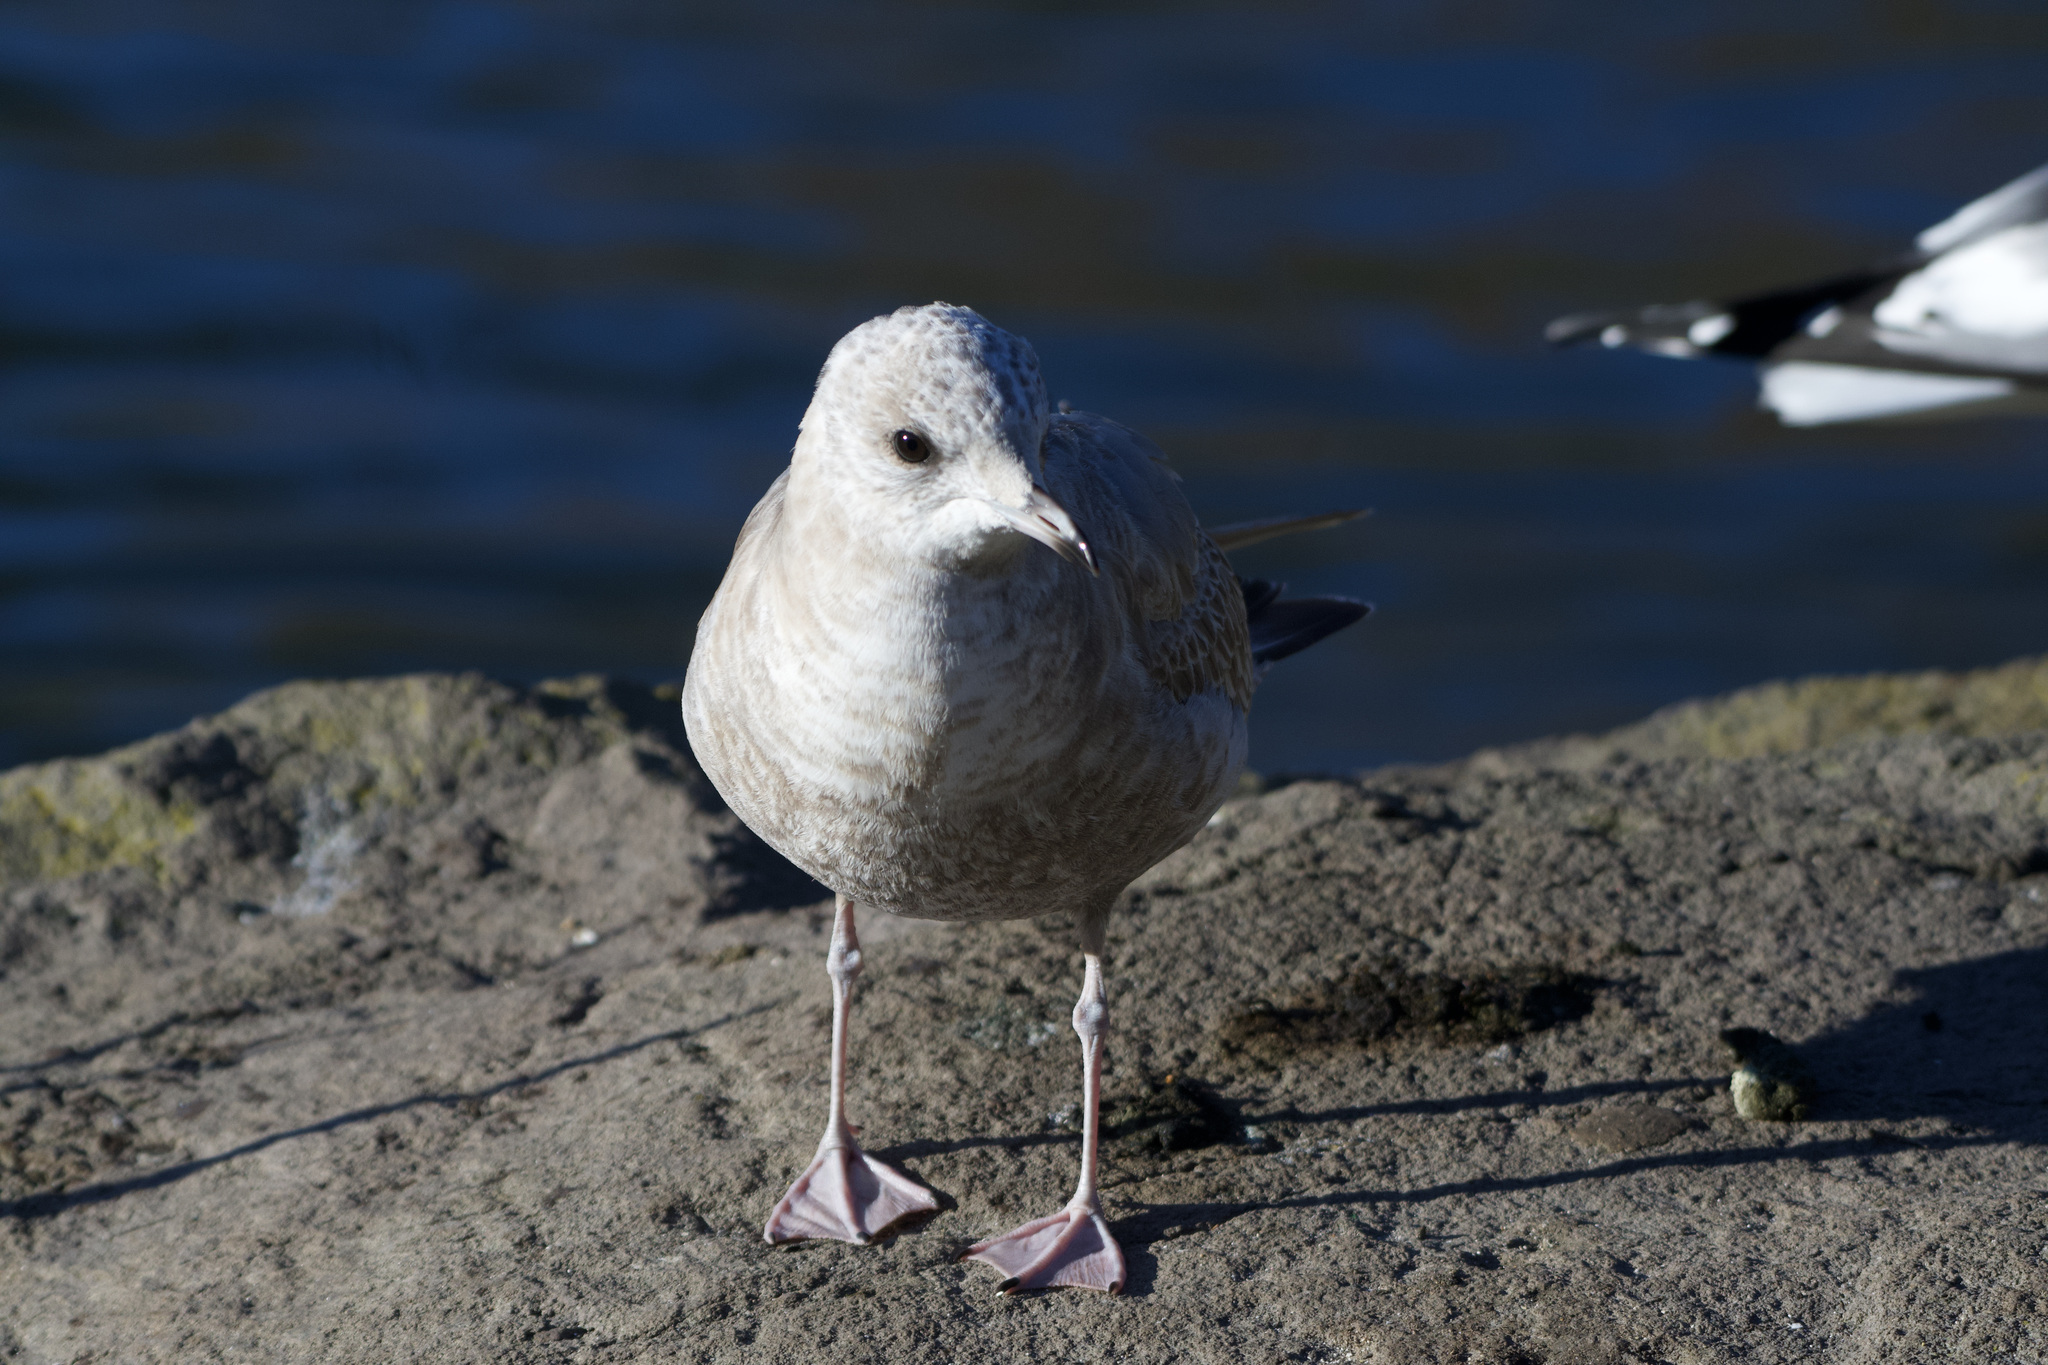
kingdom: Animalia
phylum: Chordata
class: Aves
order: Charadriiformes
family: Laridae
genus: Larus
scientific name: Larus brachyrhynchus
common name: Short-billed gull
